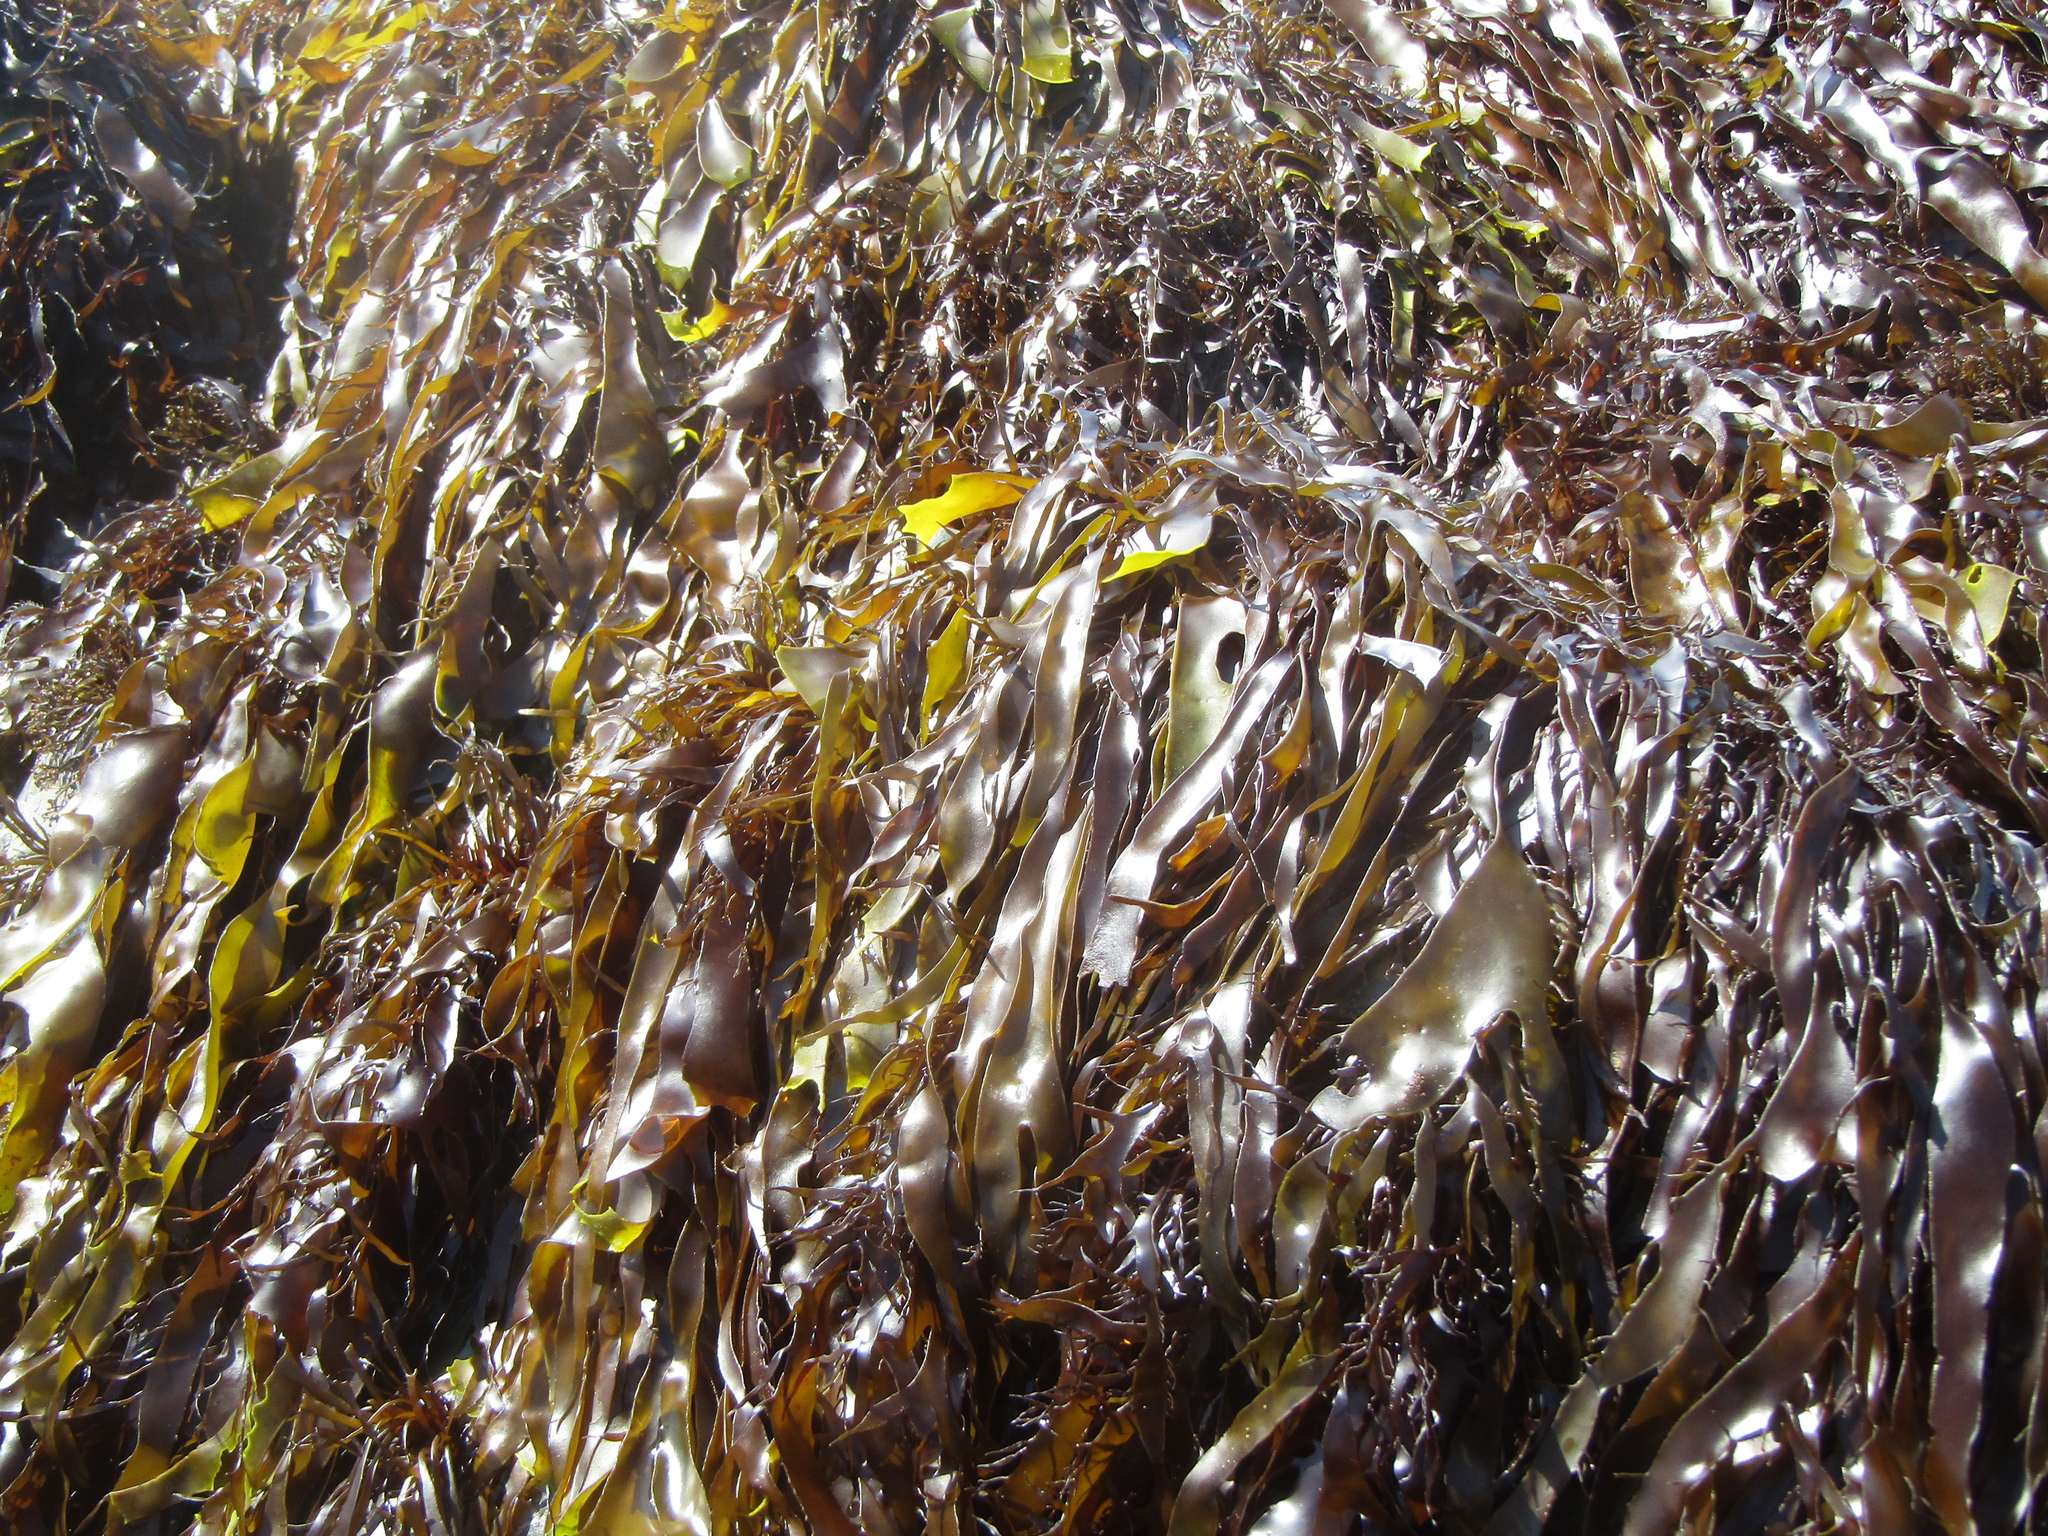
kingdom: Plantae
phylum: Rhodophyta
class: Florideophyceae
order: Halymeniales
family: Halymeniaceae
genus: Pachymenia
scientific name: Pachymenia lusoria
